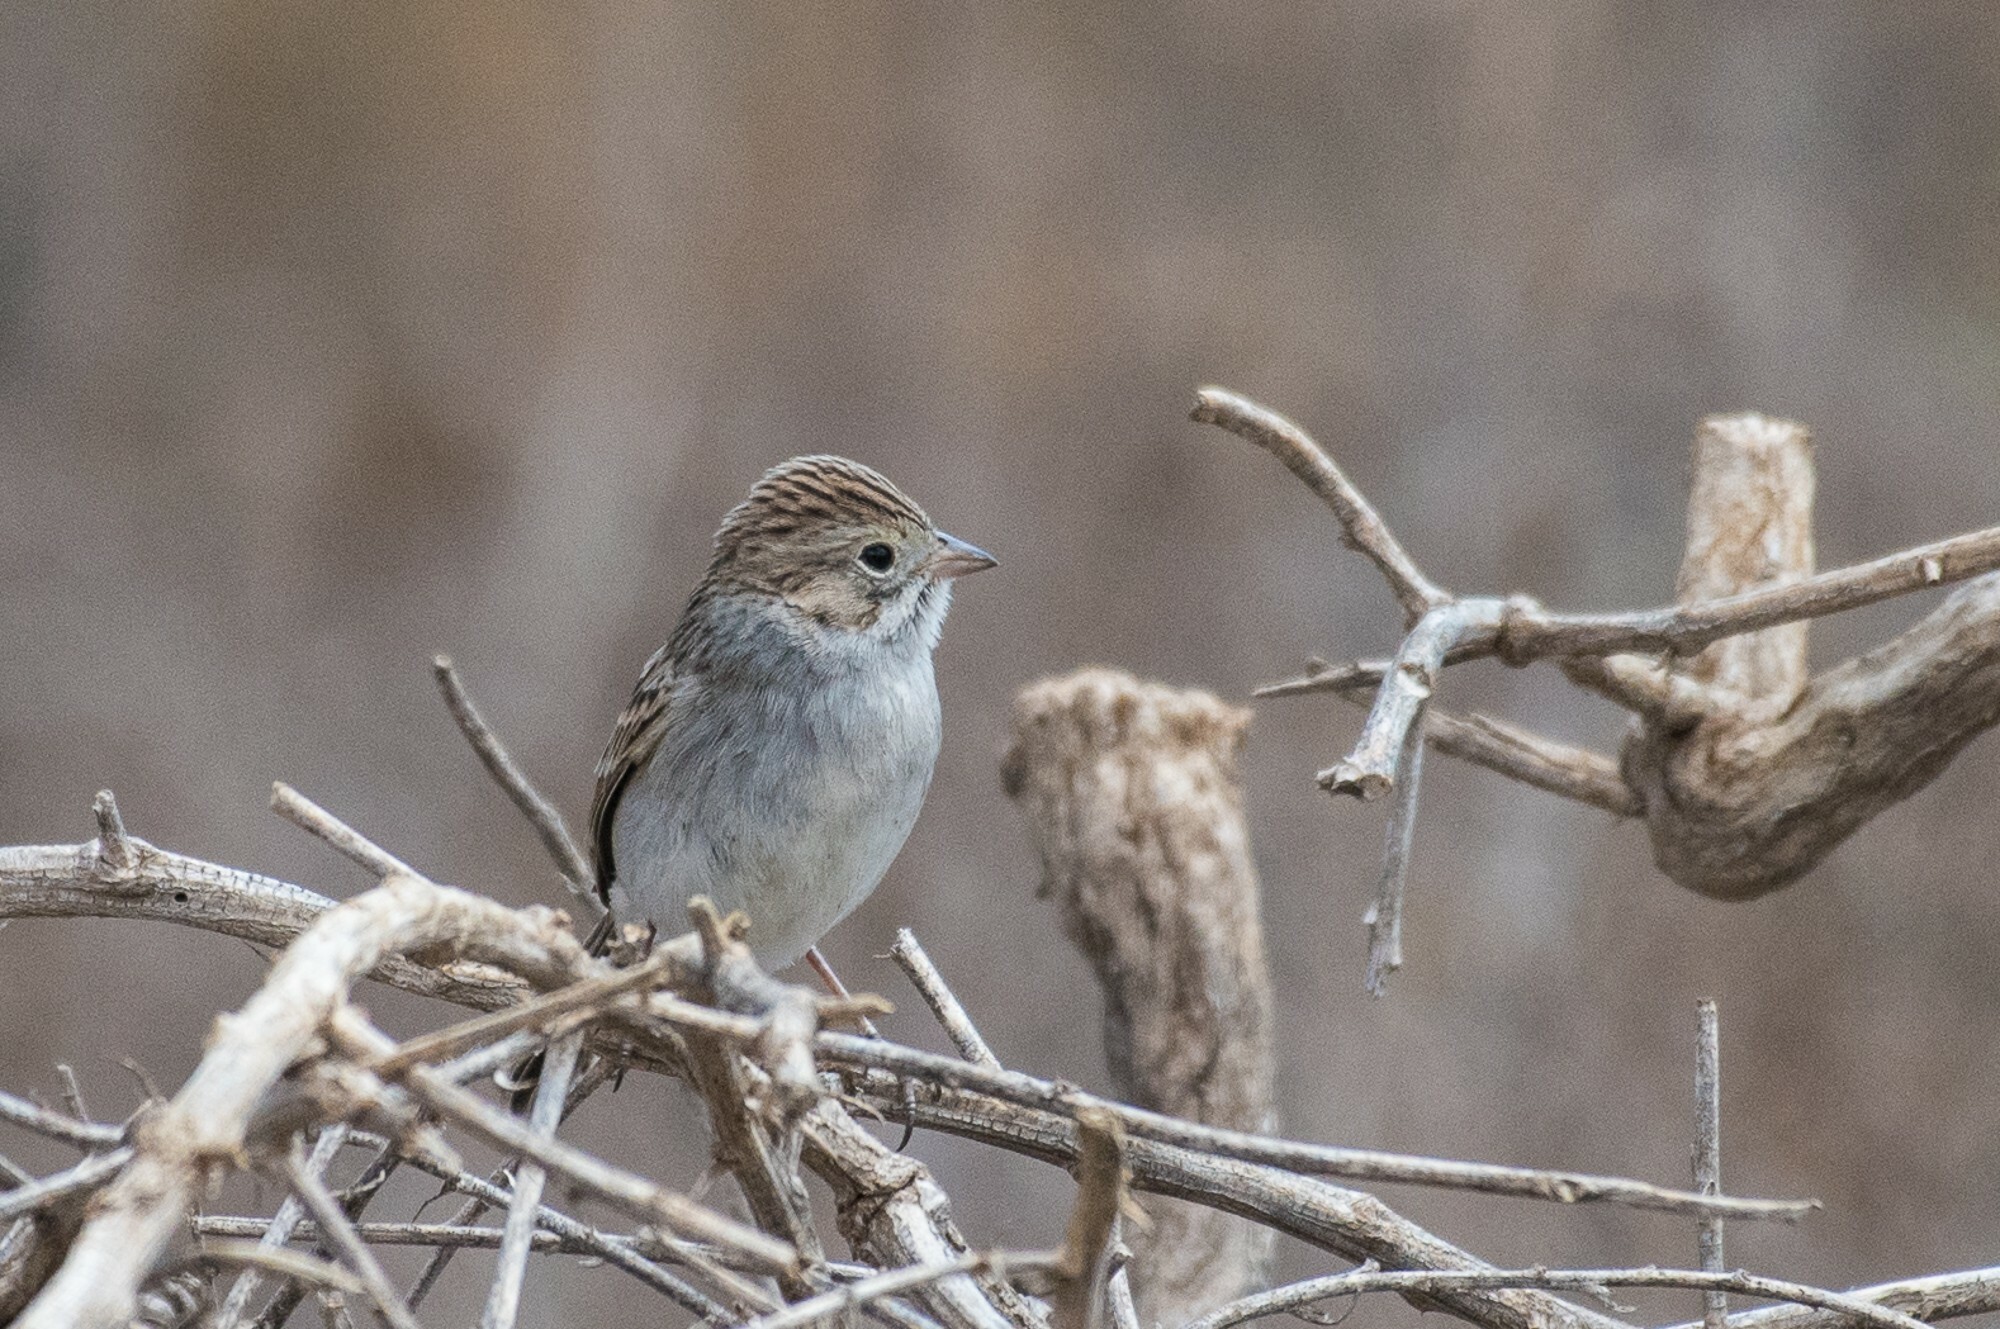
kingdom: Animalia
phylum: Chordata
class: Aves
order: Passeriformes
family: Passerellidae
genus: Spizella
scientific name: Spizella breweri
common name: Brewer's sparrow
